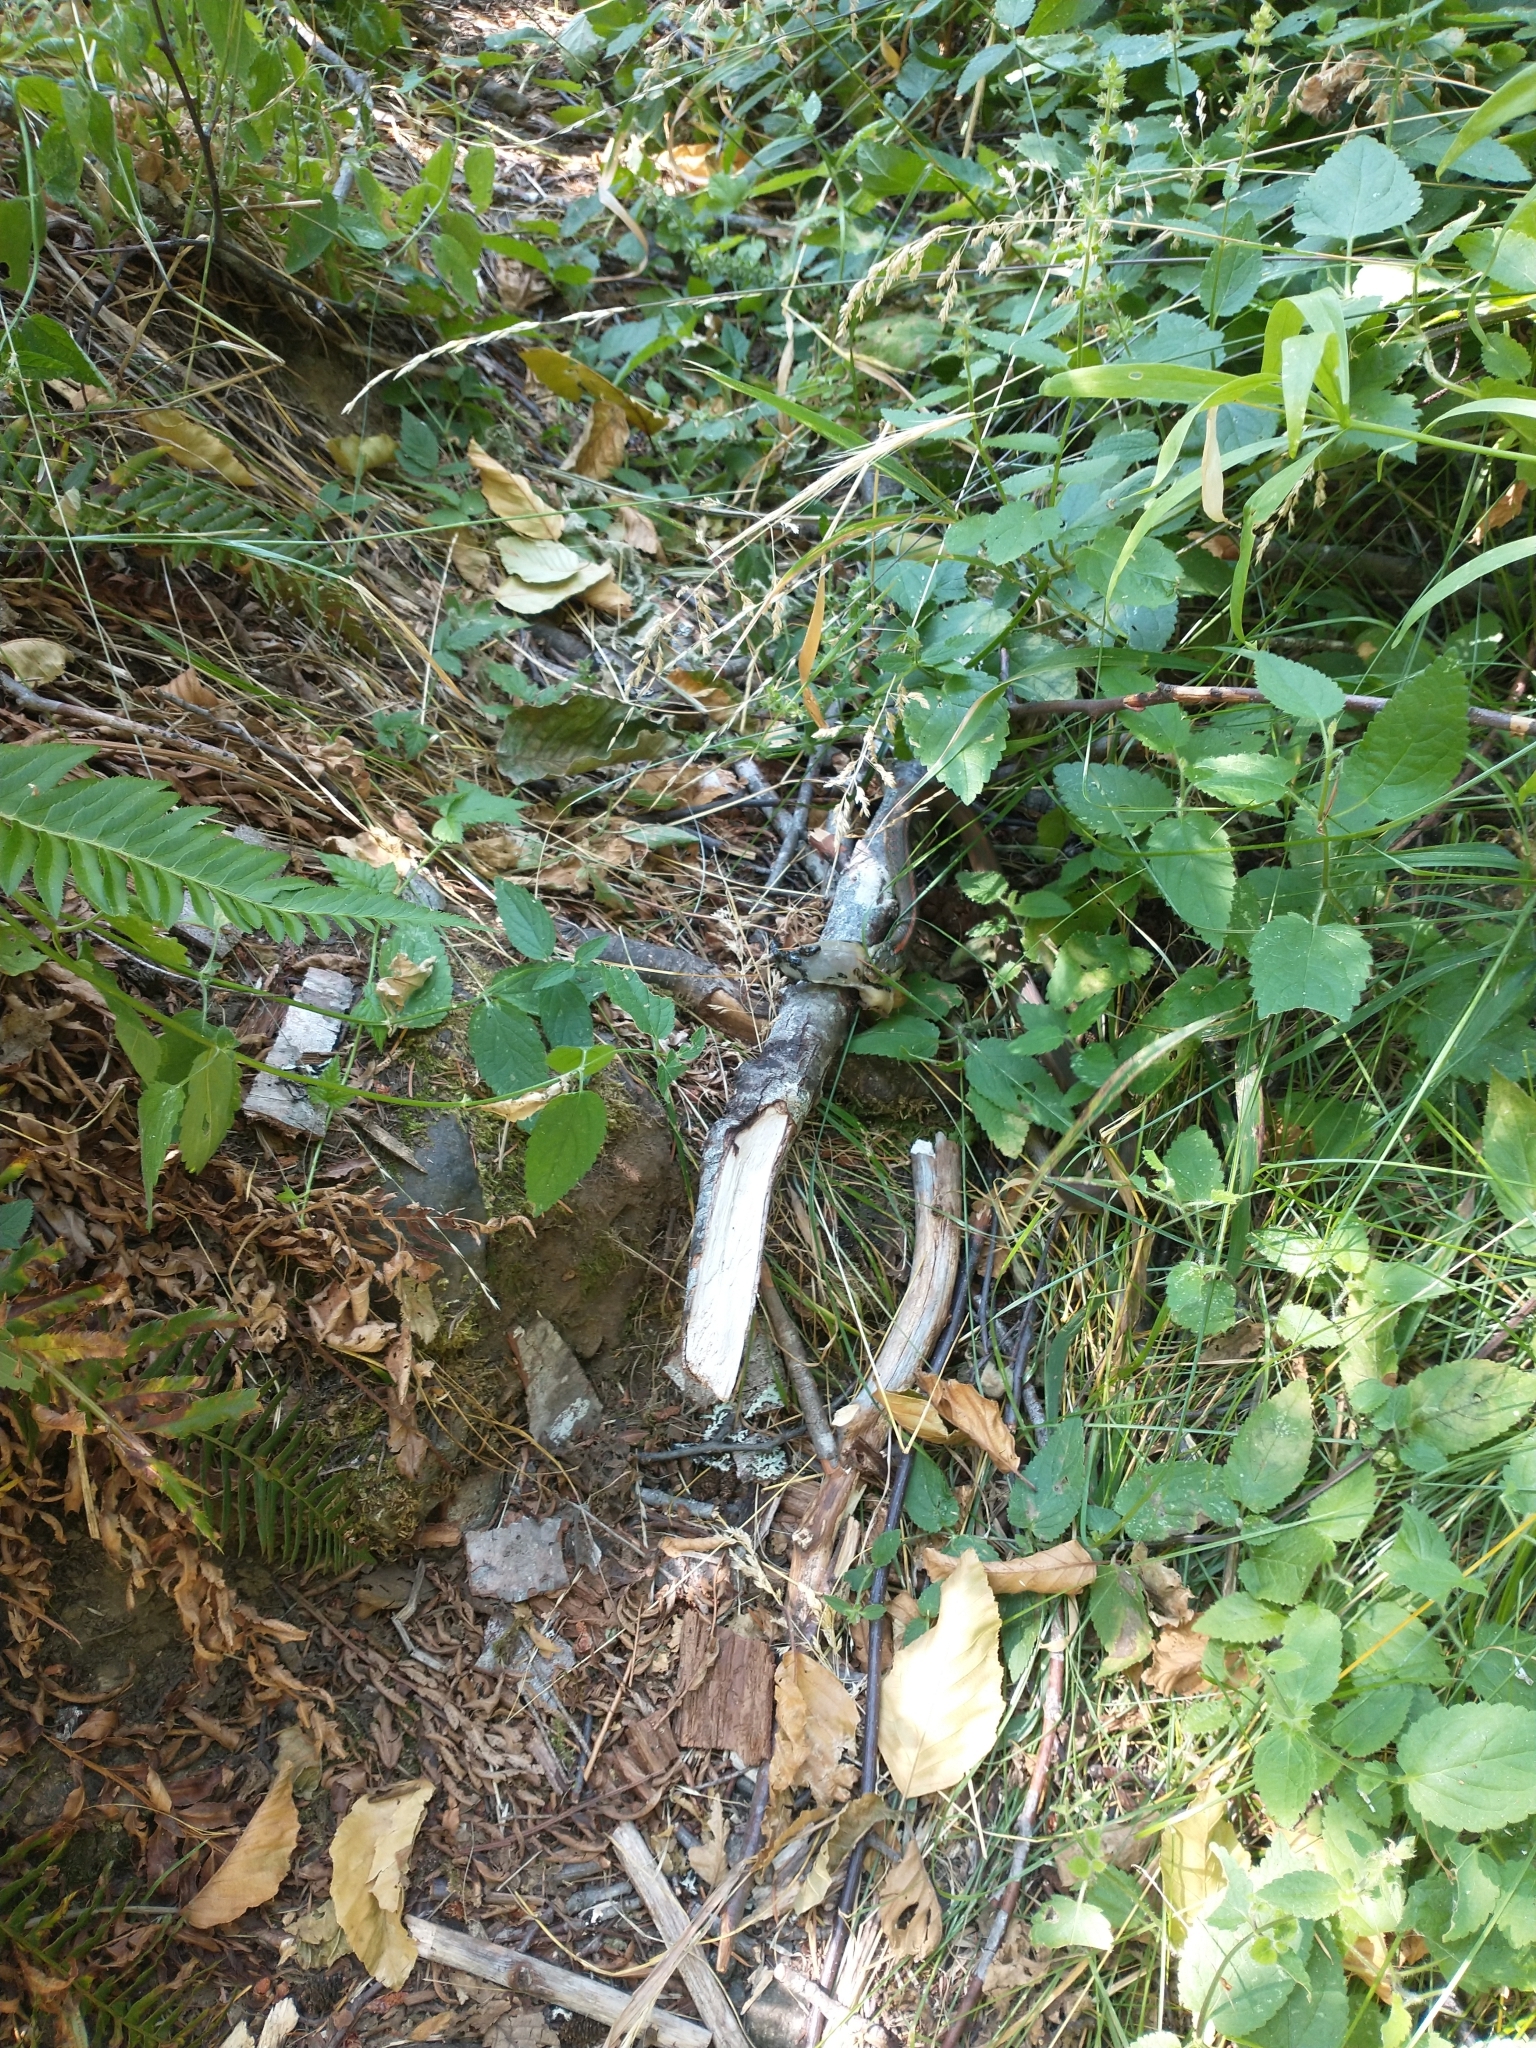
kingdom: Animalia
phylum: Chordata
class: Squamata
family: Colubridae
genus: Thamnophis
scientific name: Thamnophis ordinoides
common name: Northwestern garter snake
